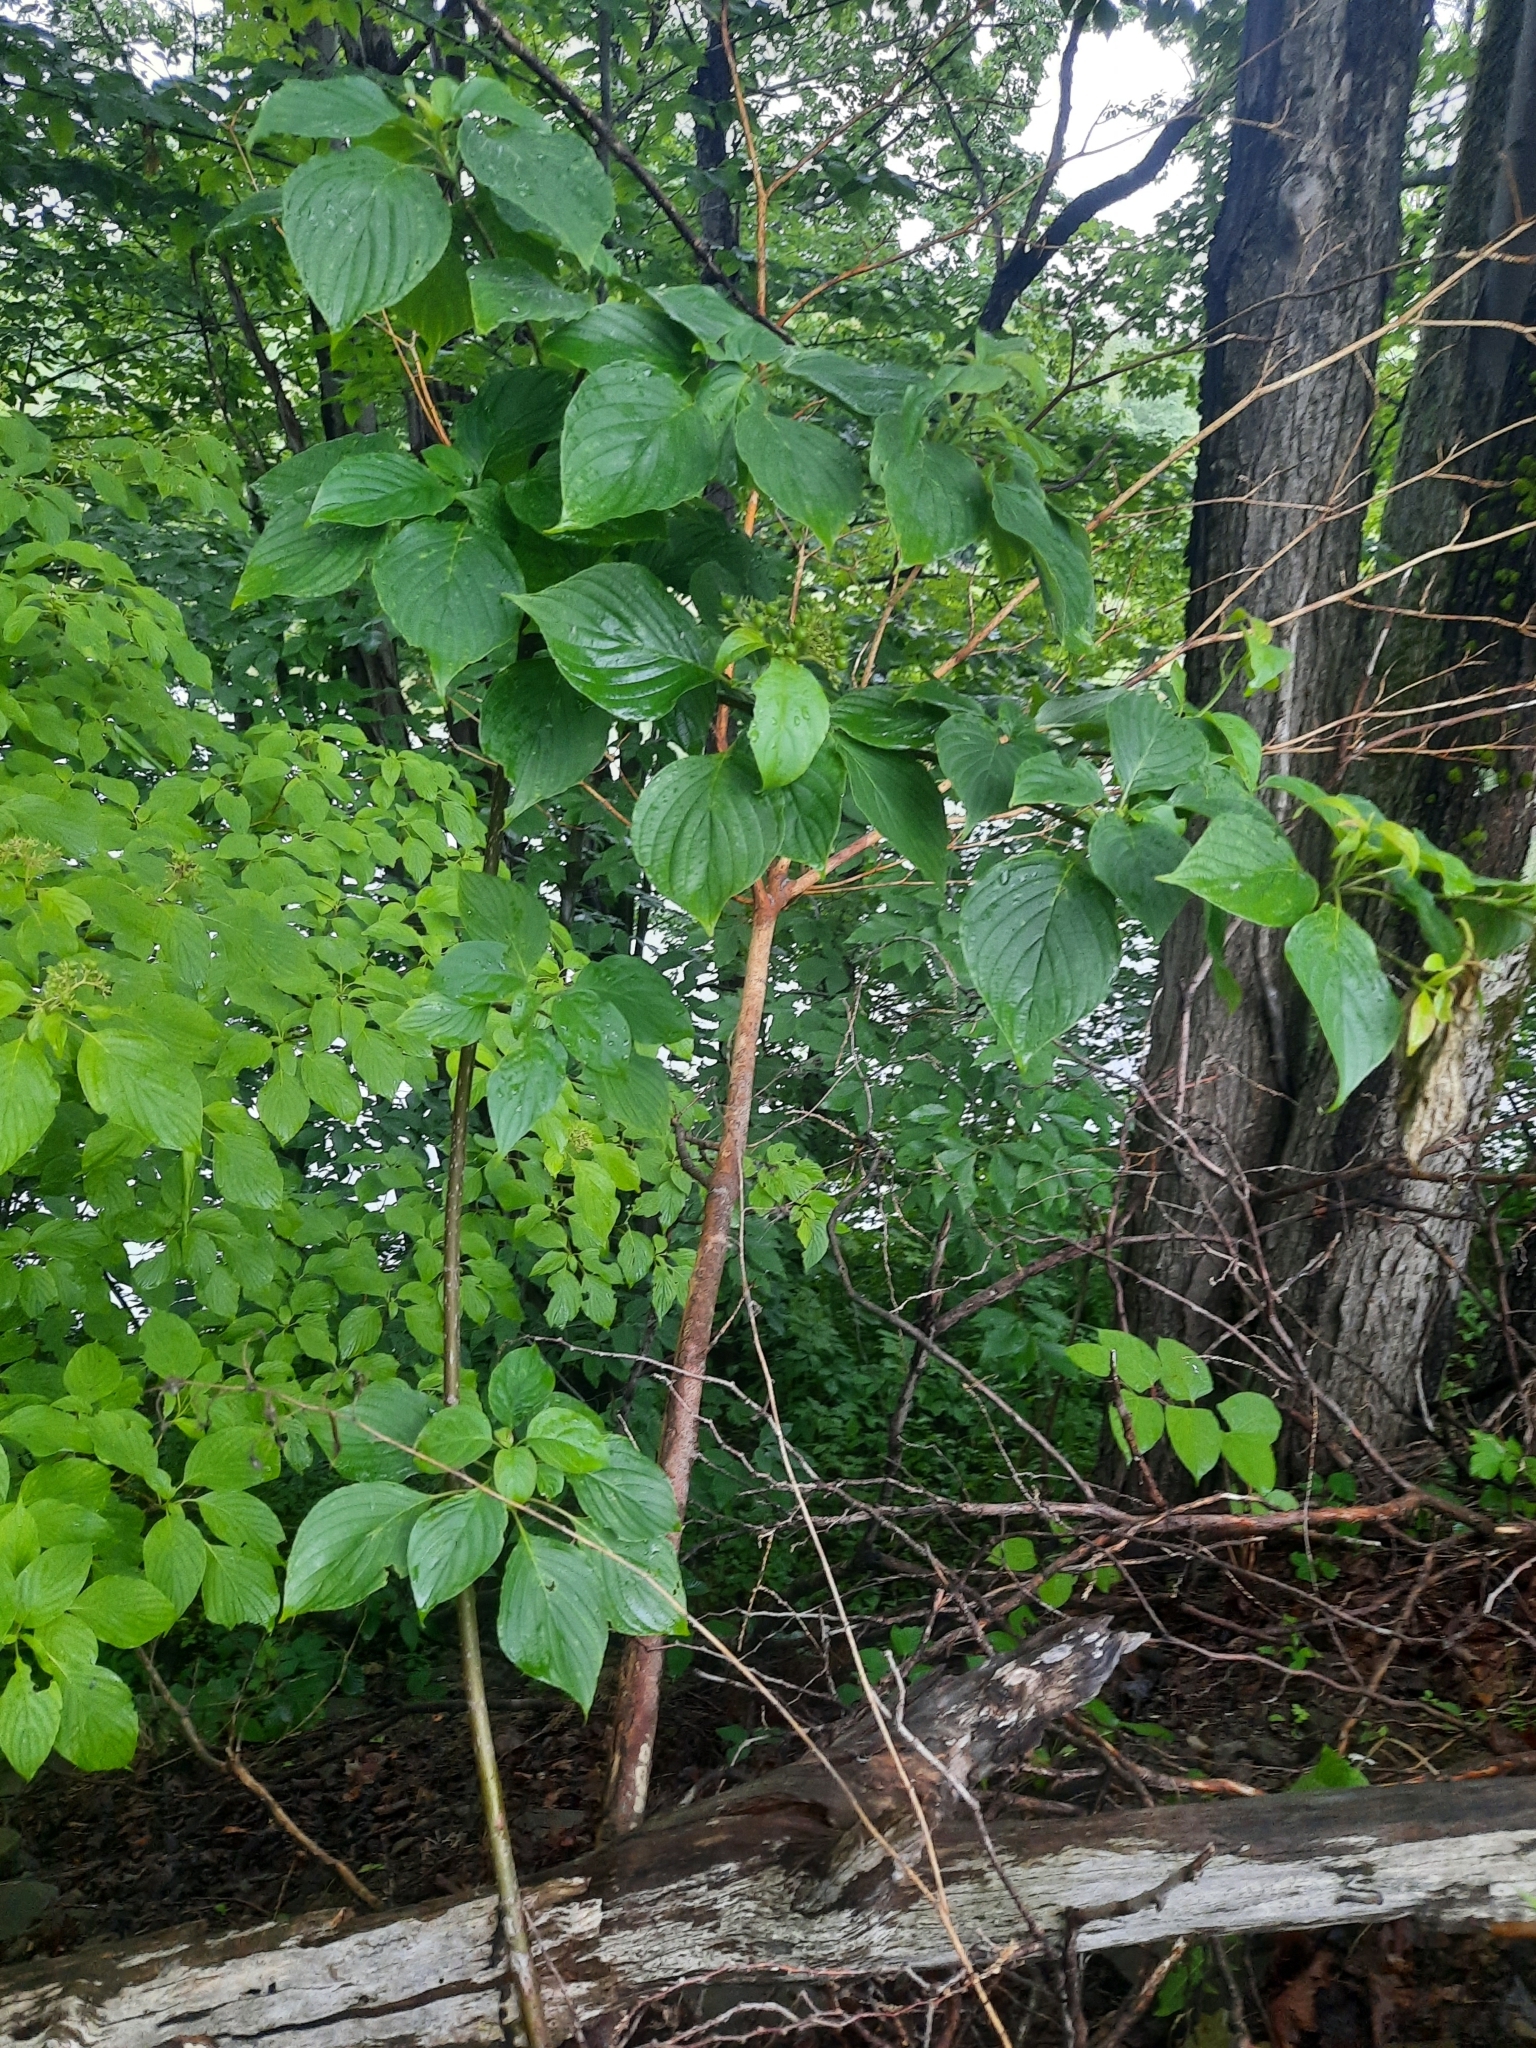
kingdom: Plantae
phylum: Tracheophyta
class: Magnoliopsida
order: Cornales
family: Cornaceae
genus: Cornus
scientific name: Cornus alternifolia
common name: Pagoda dogwood
